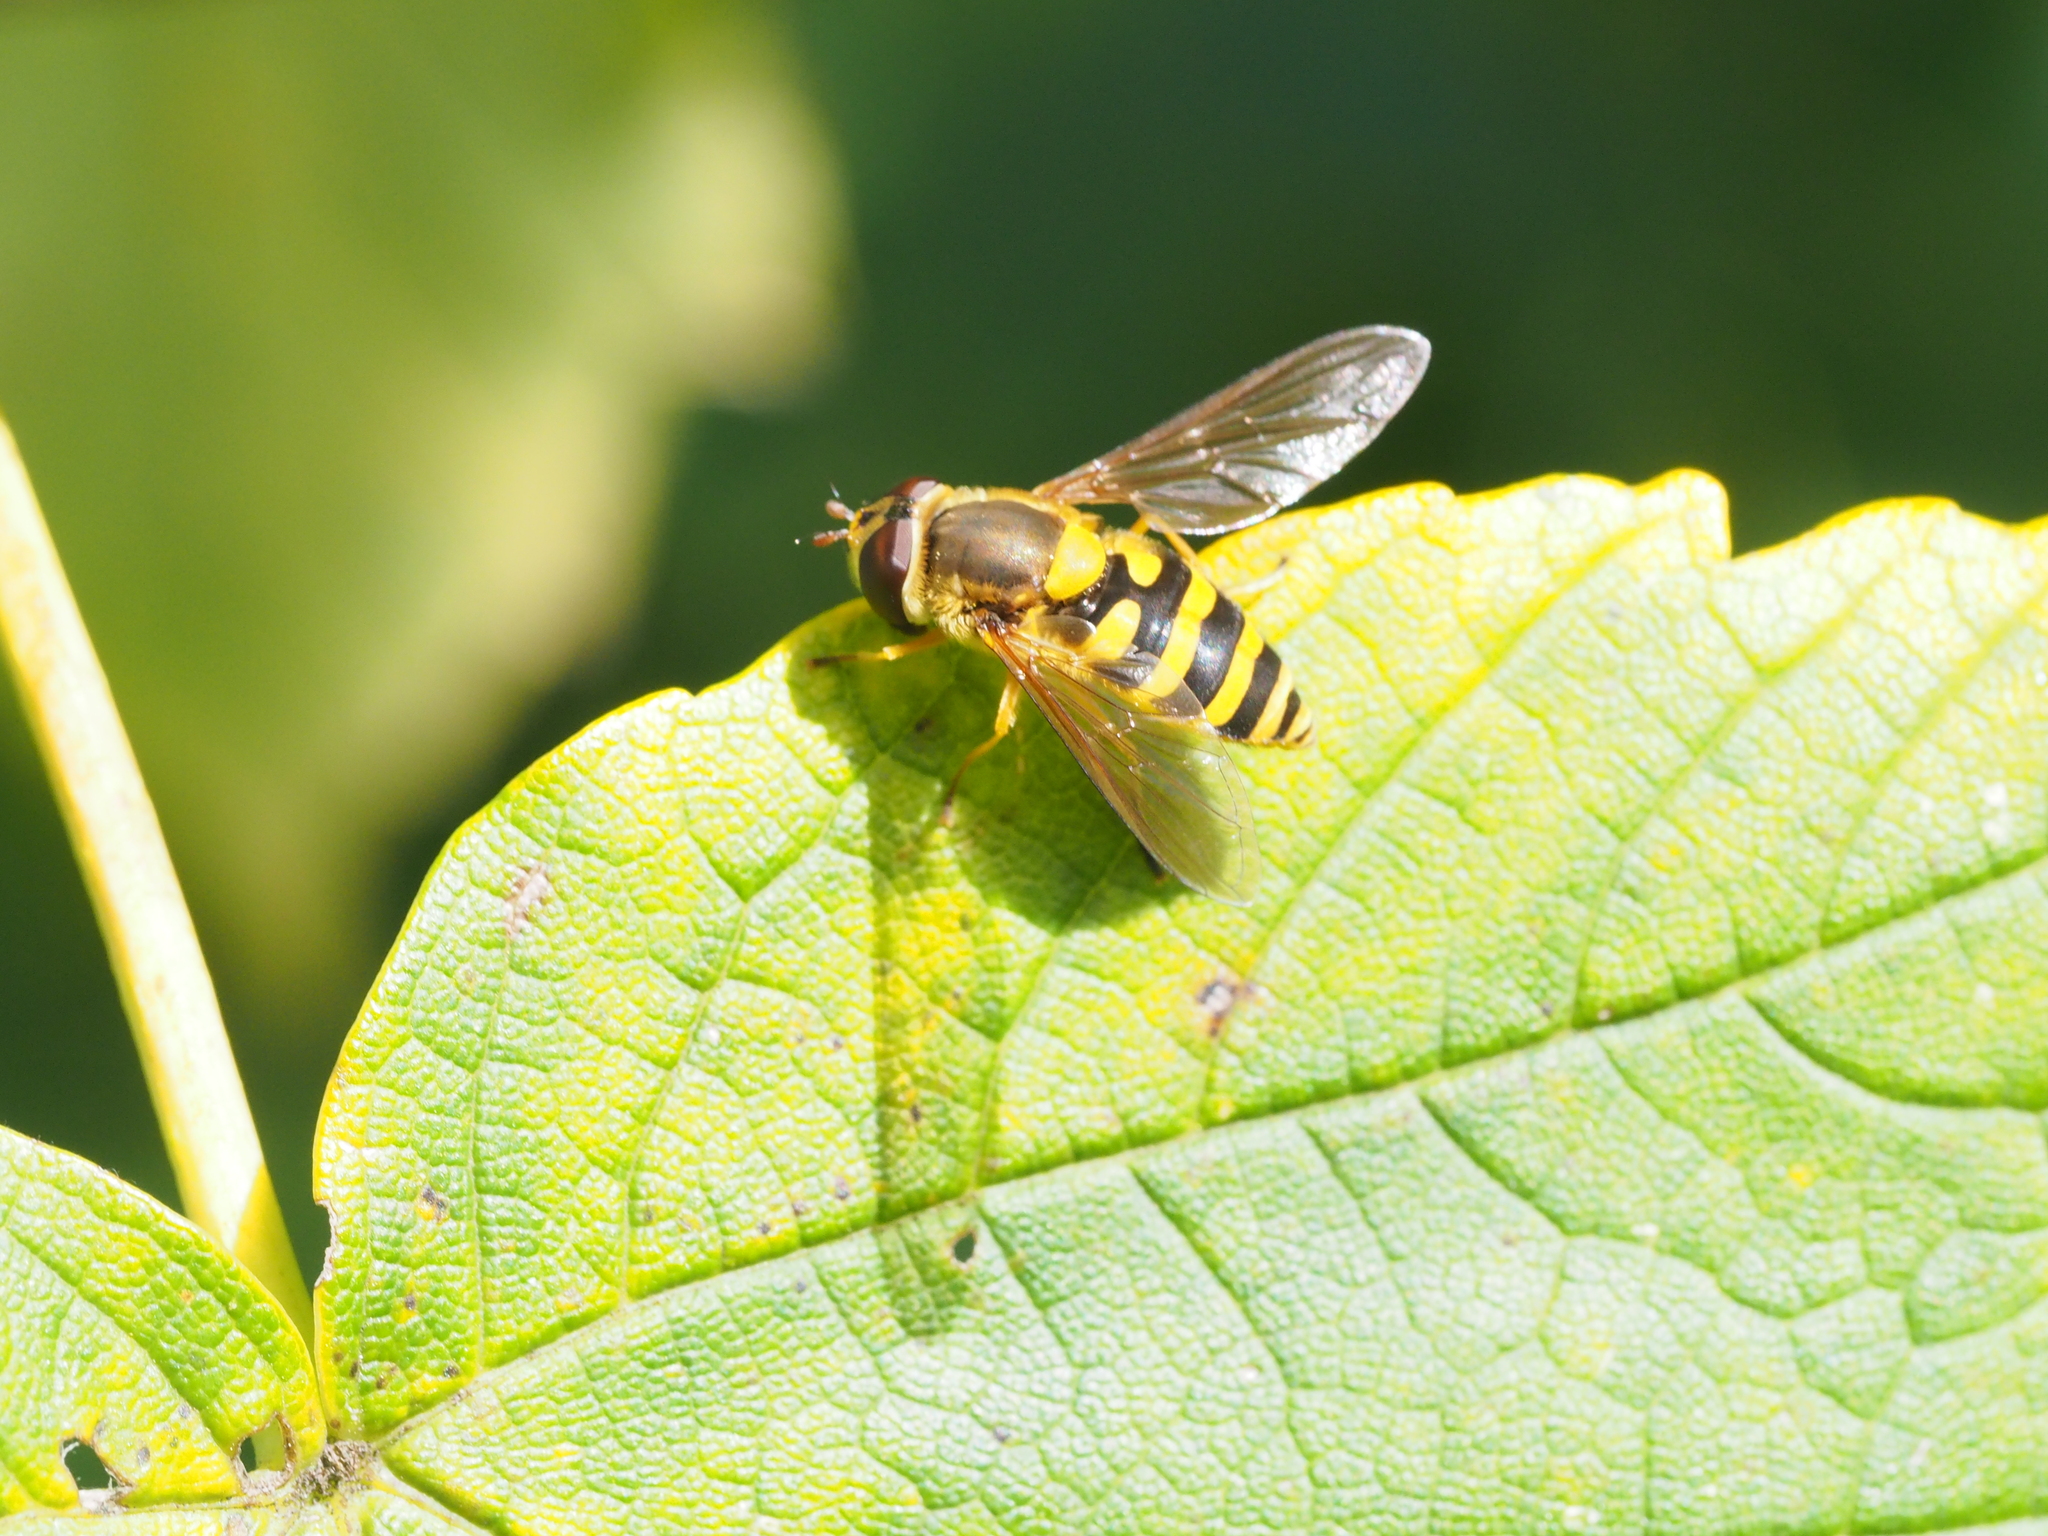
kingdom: Animalia
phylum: Arthropoda
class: Insecta
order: Diptera
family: Syrphidae
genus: Syrphus
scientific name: Syrphus ribesii
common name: Common flower fly
